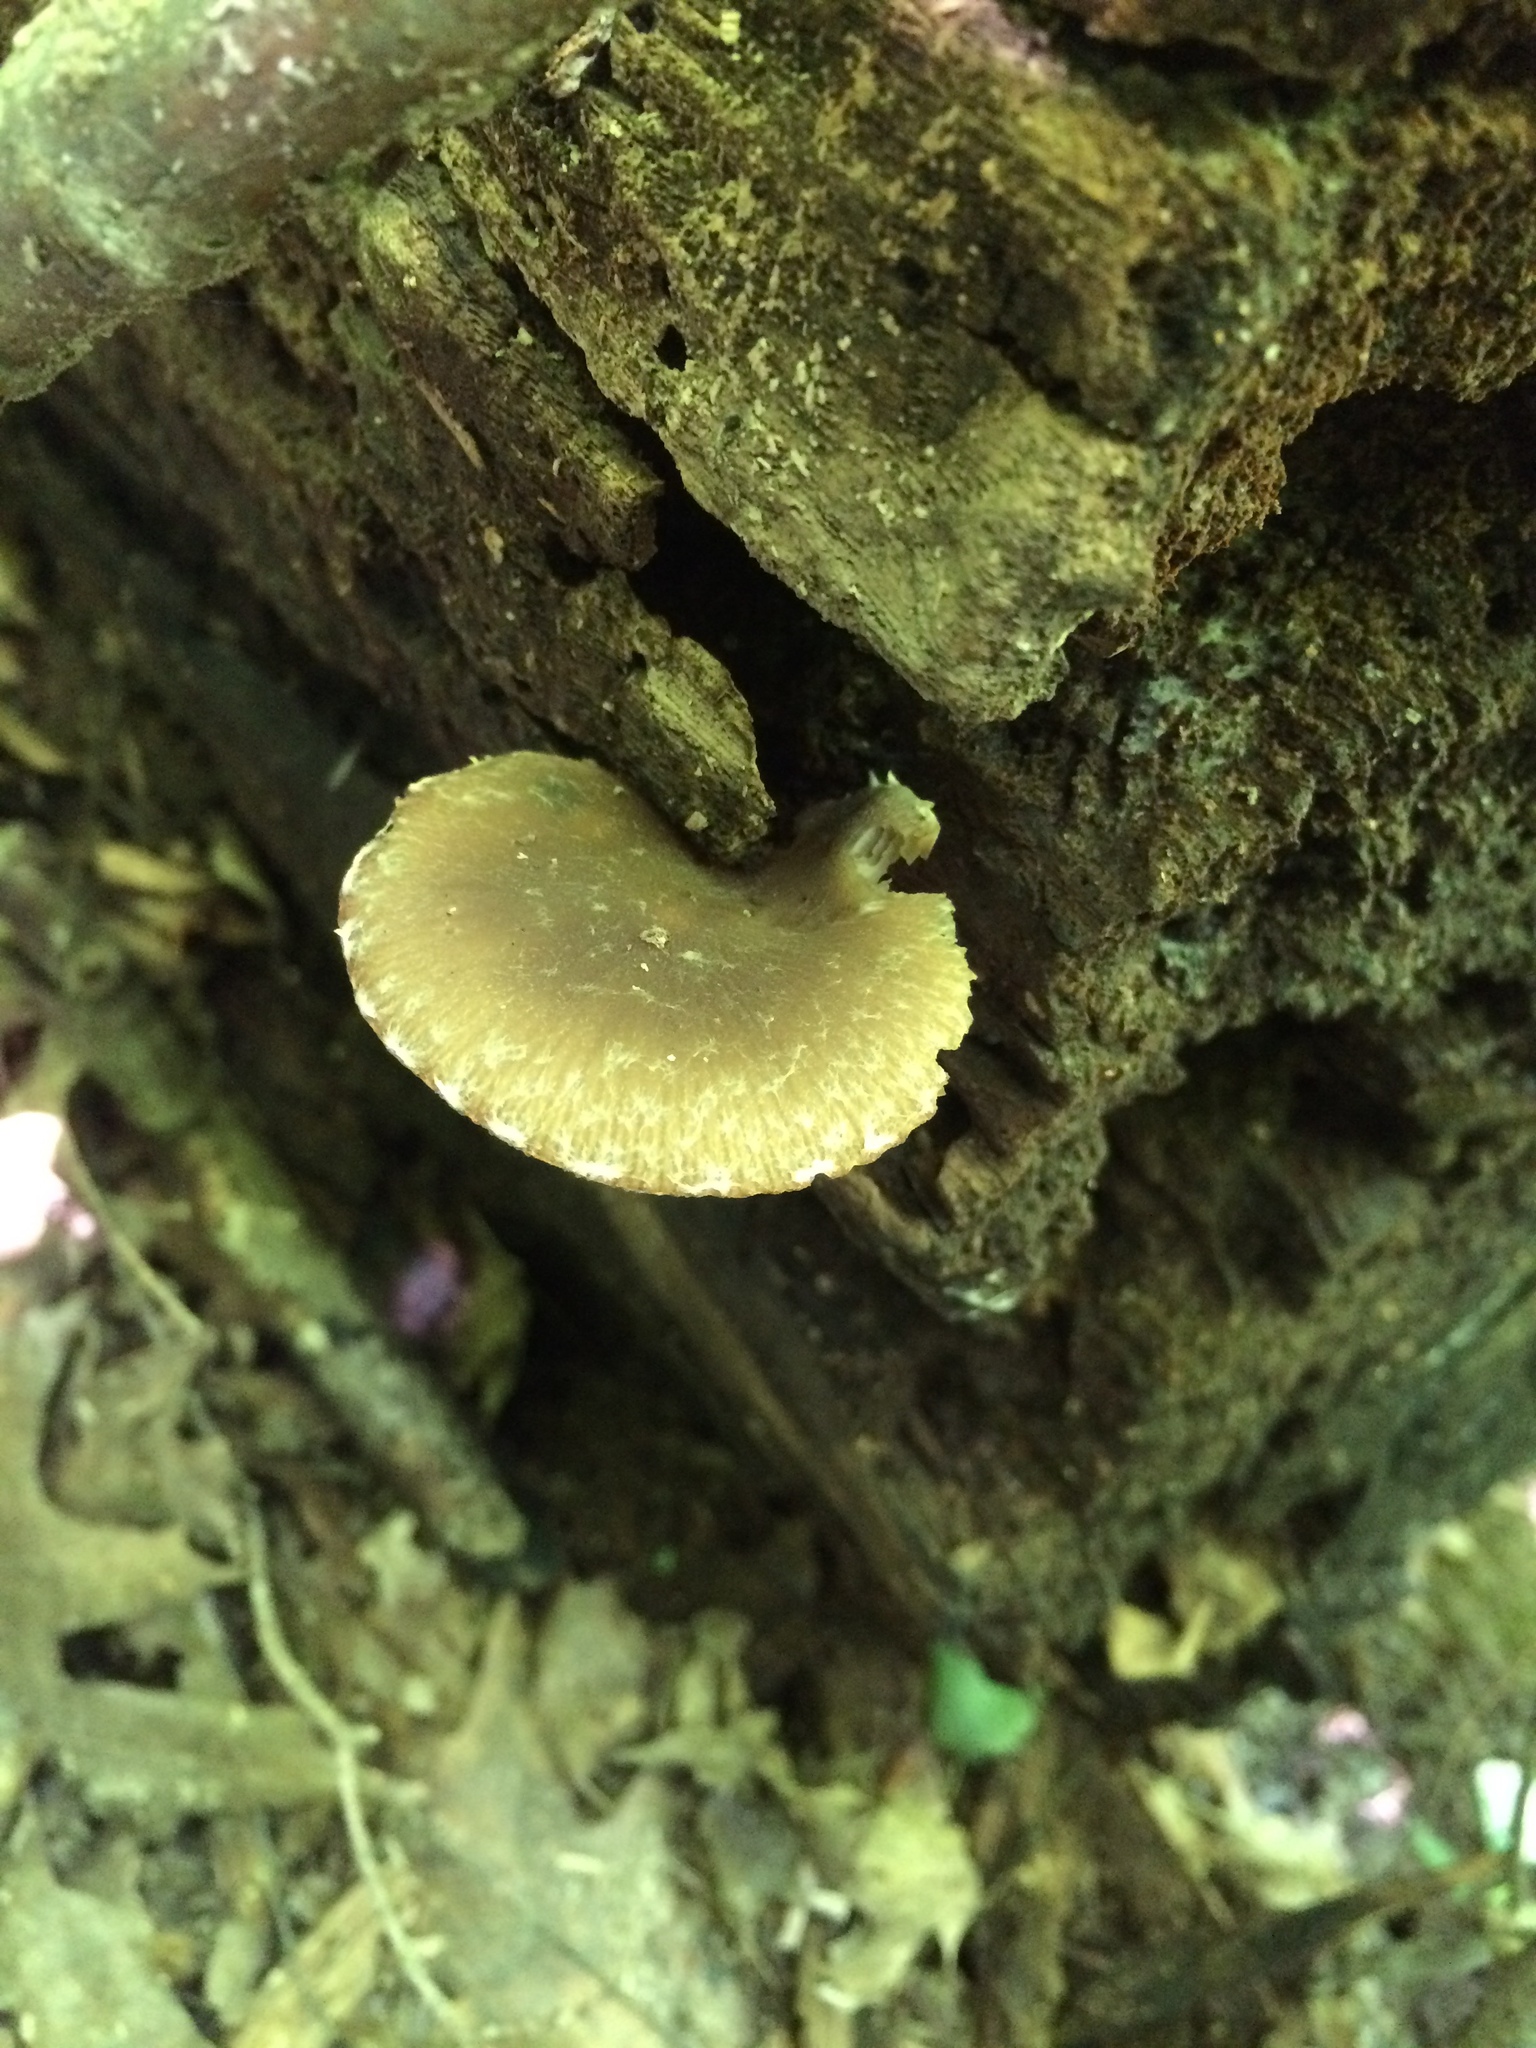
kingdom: Fungi
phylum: Basidiomycota
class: Agaricomycetes
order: Agaricales
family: Psathyrellaceae
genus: Psathyrella
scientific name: Psathyrella spintrigeroides
